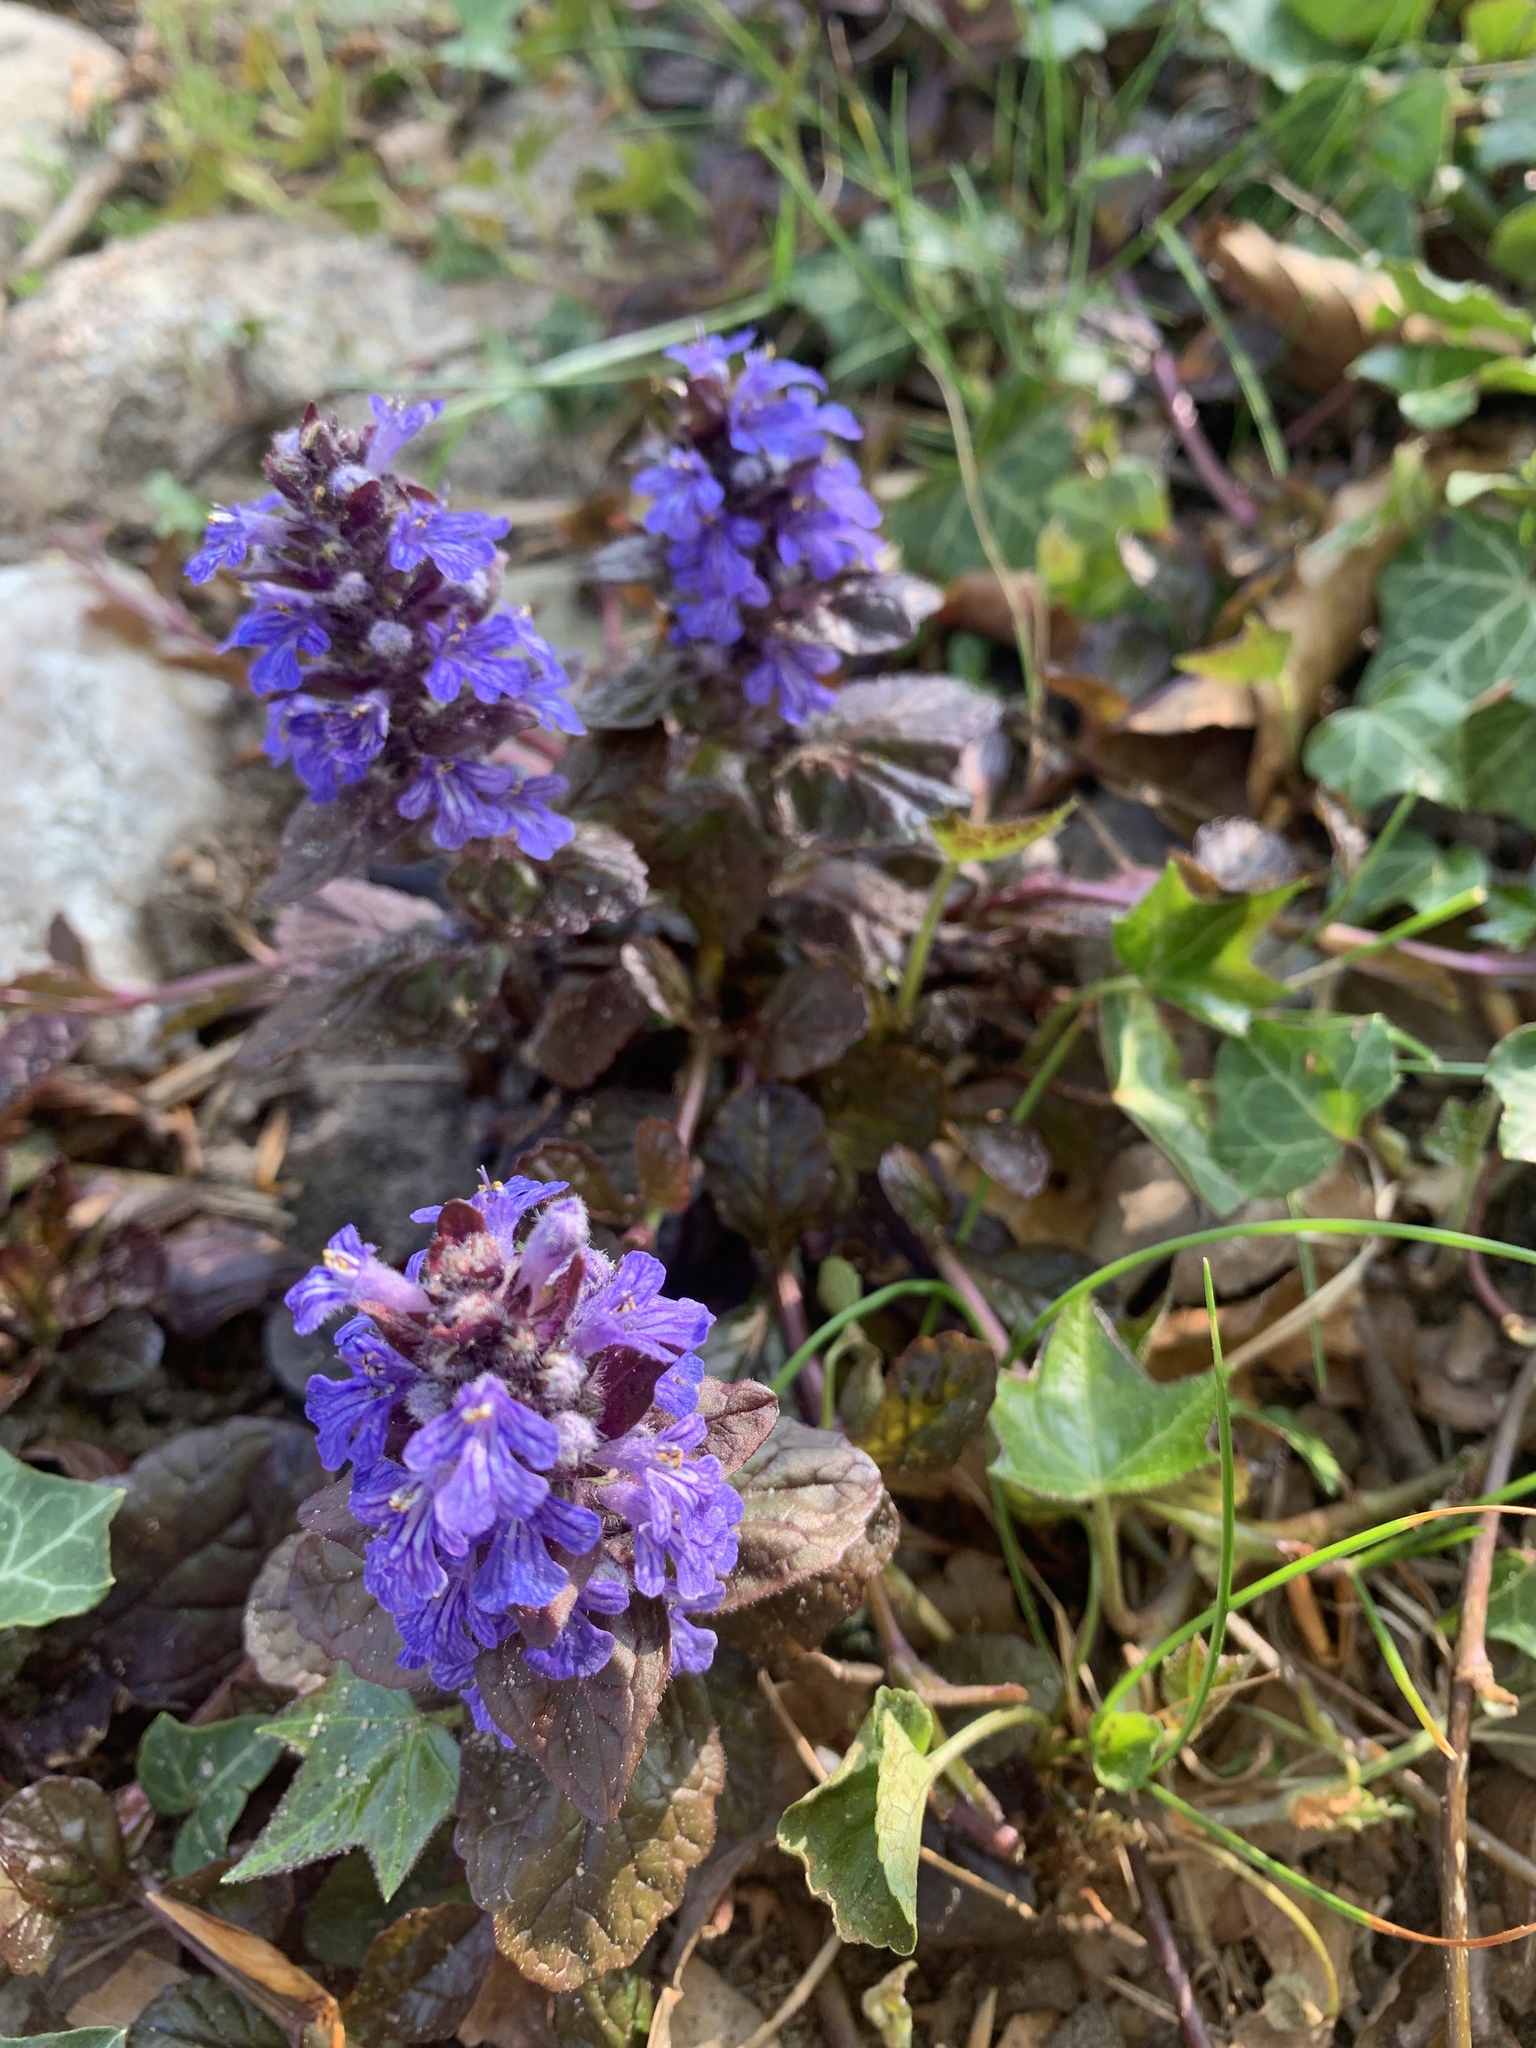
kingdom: Plantae
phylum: Tracheophyta
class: Magnoliopsida
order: Lamiales
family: Lamiaceae
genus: Ajuga
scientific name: Ajuga reptans
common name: Bugle
